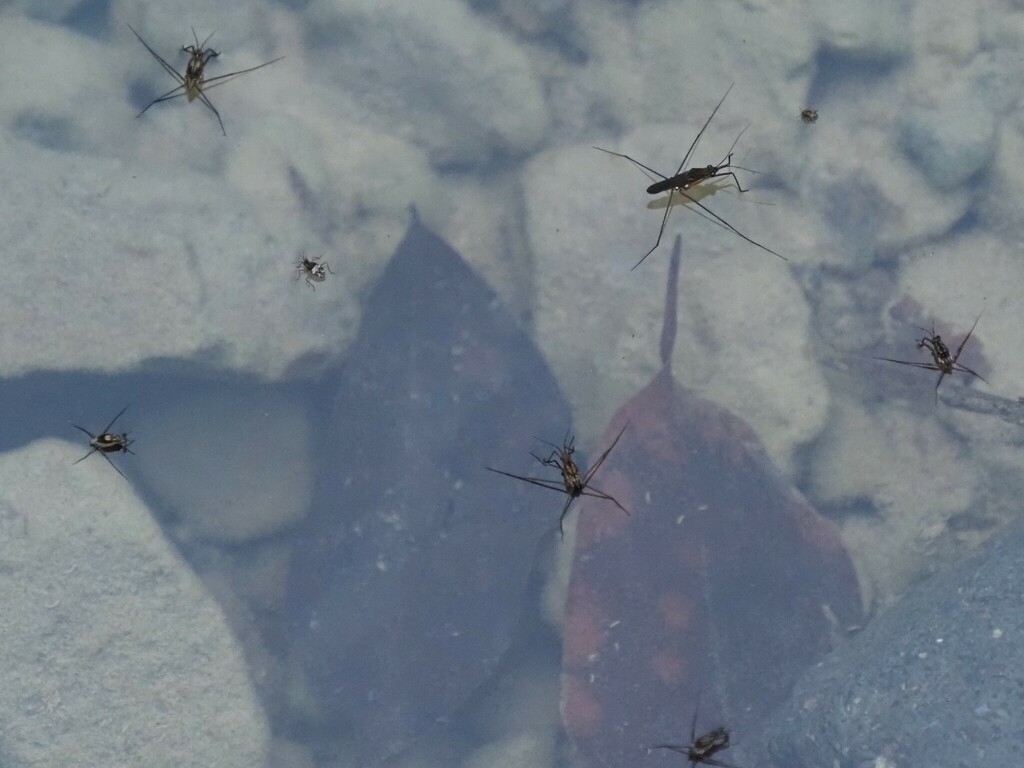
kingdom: Animalia
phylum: Arthropoda
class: Insecta
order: Hemiptera
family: Gerridae
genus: Trepobates
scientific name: Trepobates
